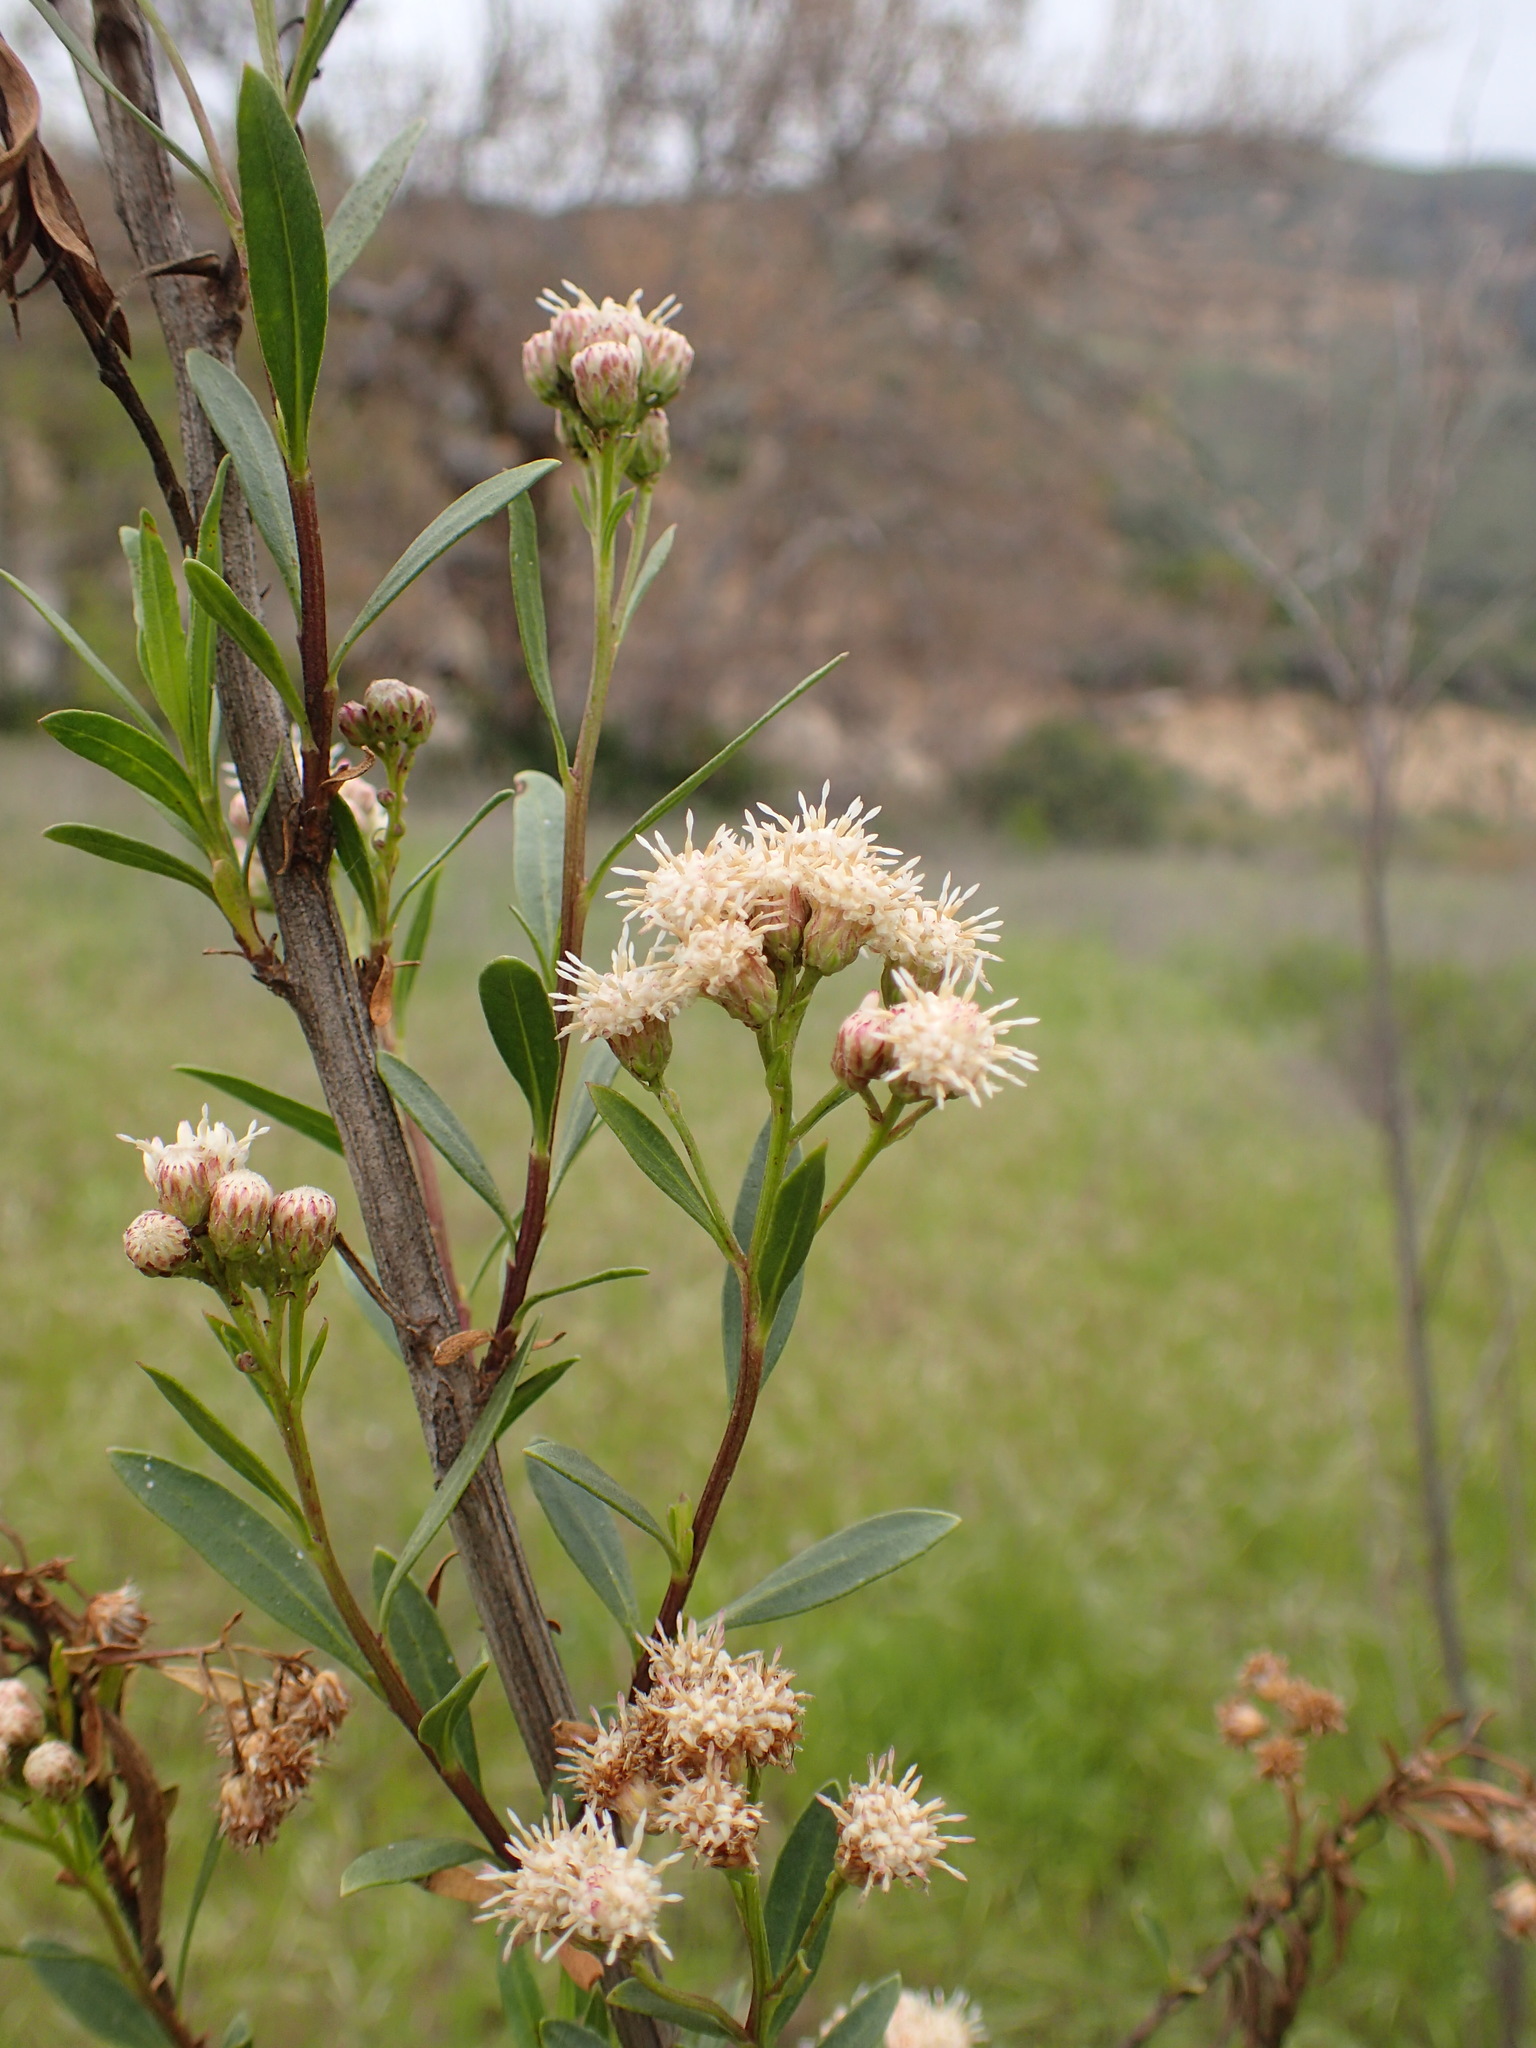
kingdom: Plantae
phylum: Tracheophyta
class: Magnoliopsida
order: Asterales
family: Asteraceae
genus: Baccharis
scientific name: Baccharis salicifolia
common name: Sticky baccharis
